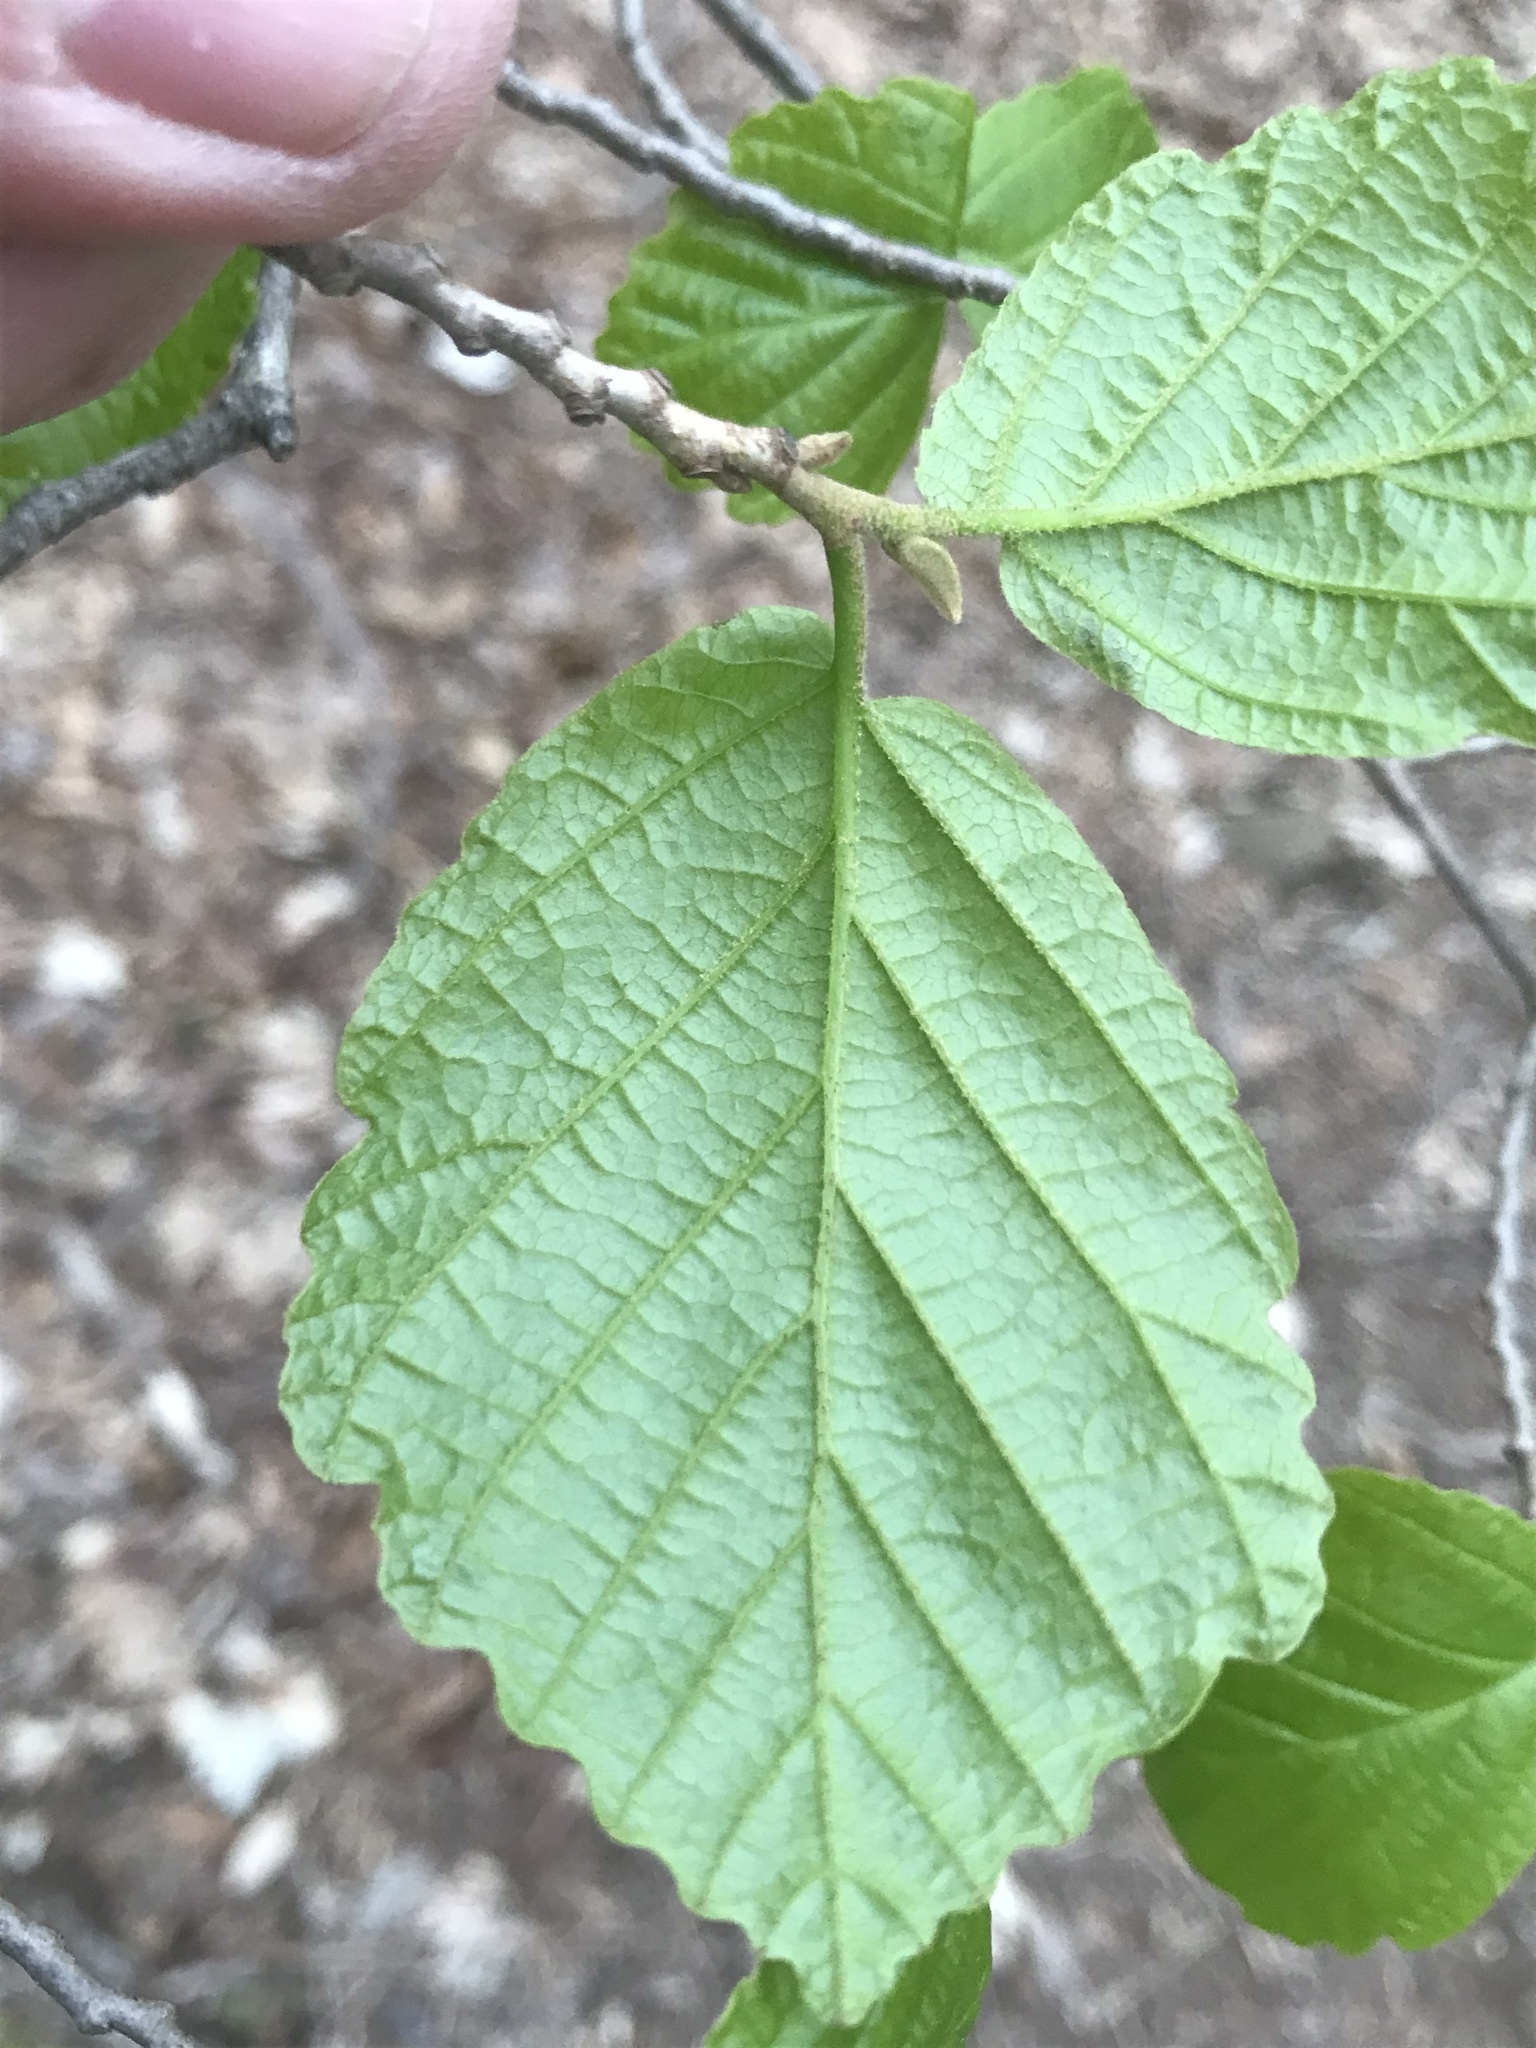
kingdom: Plantae
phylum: Tracheophyta
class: Magnoliopsida
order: Saxifragales
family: Hamamelidaceae
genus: Hamamelis
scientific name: Hamamelis virginiana
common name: Witch-hazel
